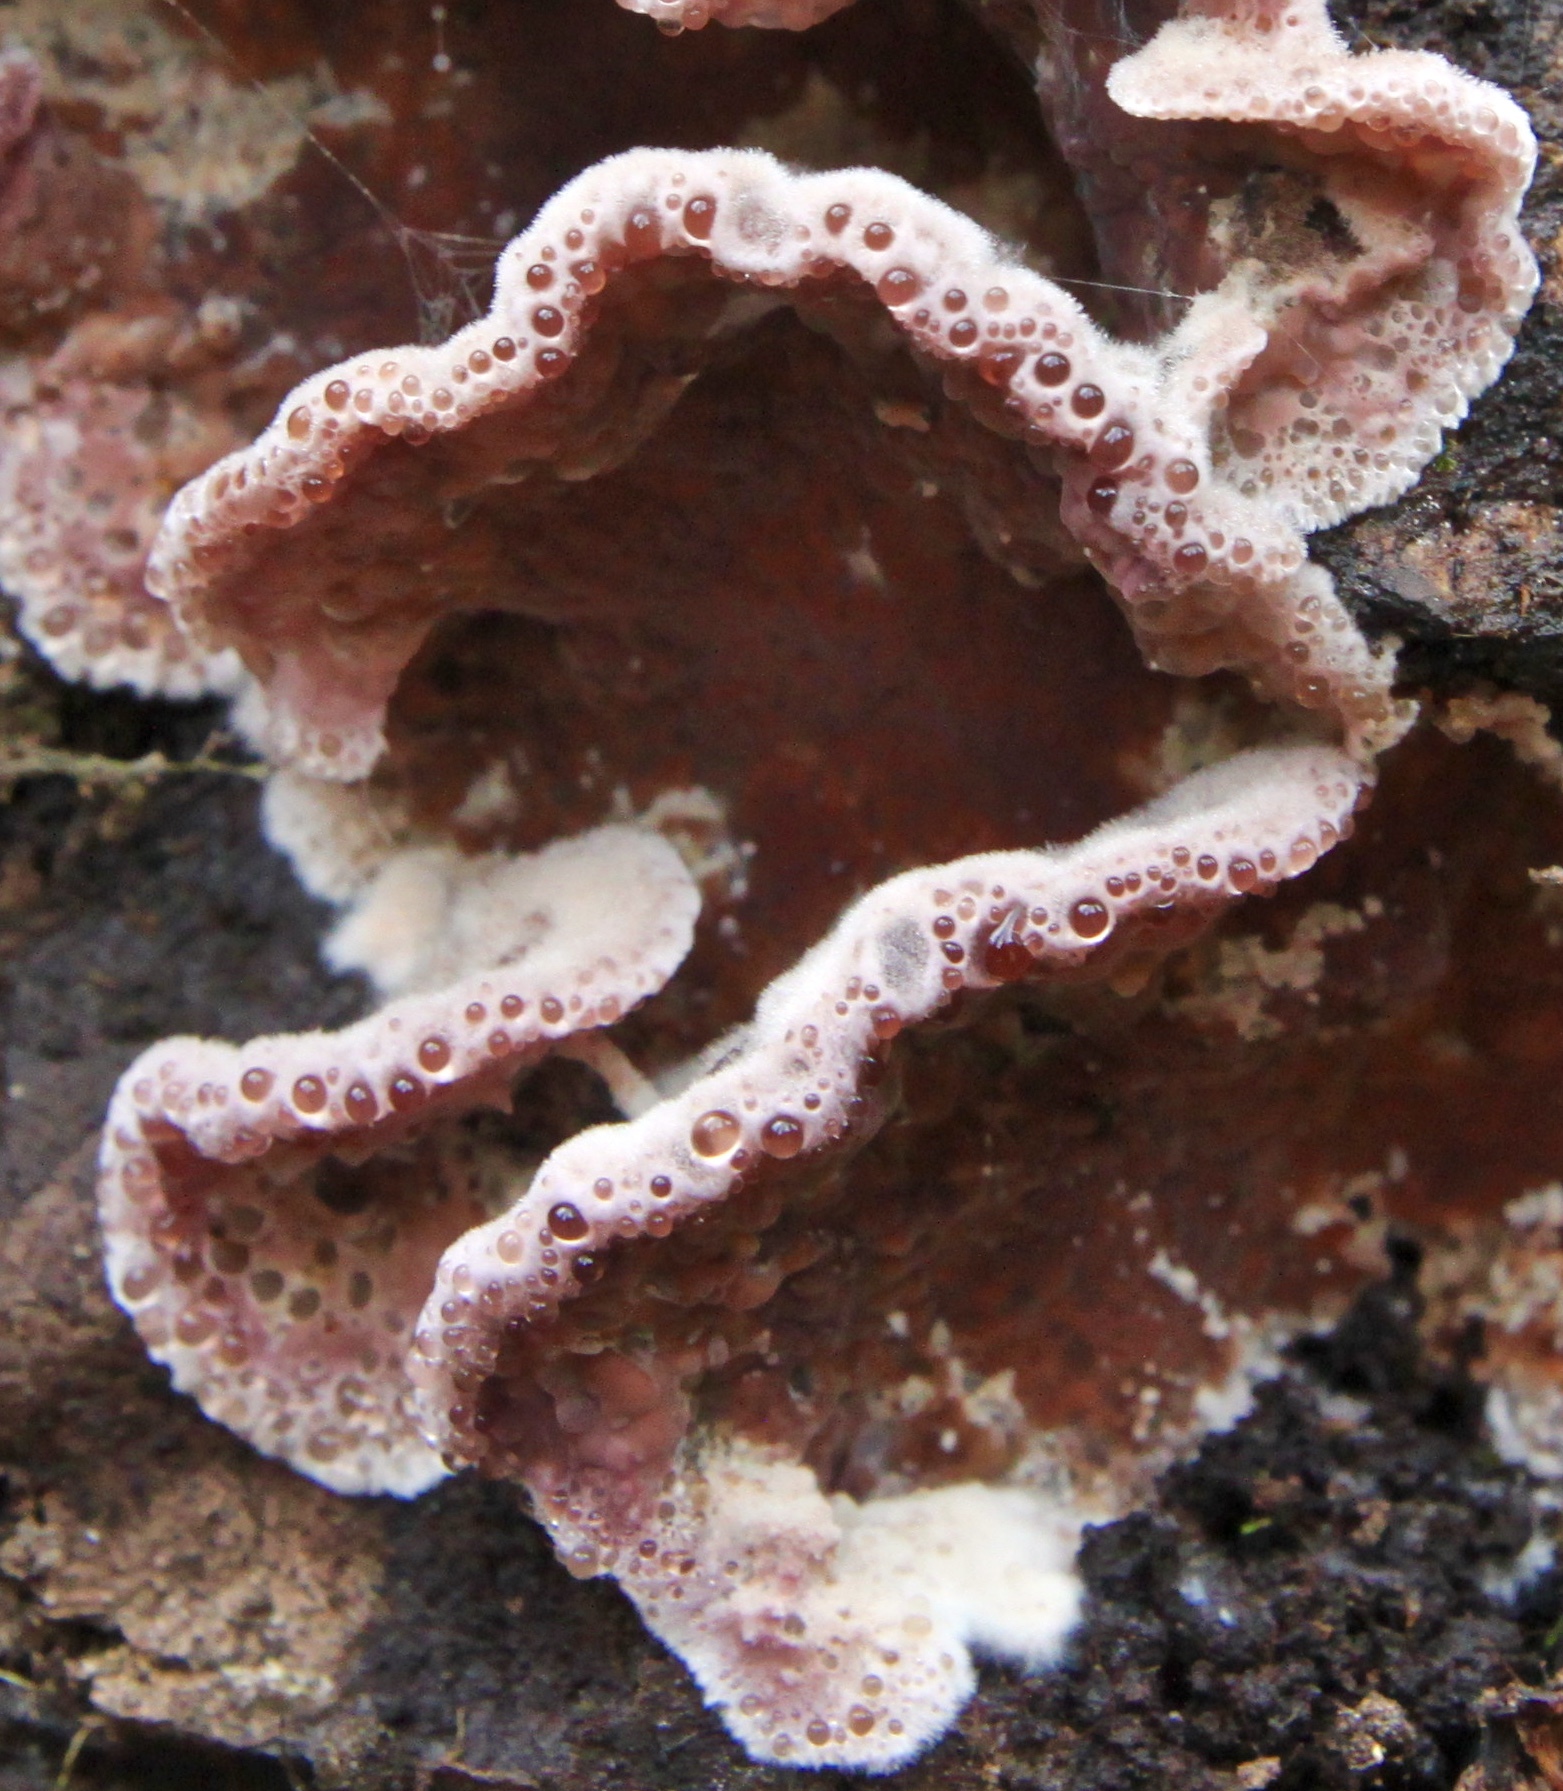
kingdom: Fungi
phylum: Basidiomycota
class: Agaricomycetes
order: Agaricales
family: Cyphellaceae
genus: Chondrostereum
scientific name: Chondrostereum purpureum
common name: Silver leaf disease
